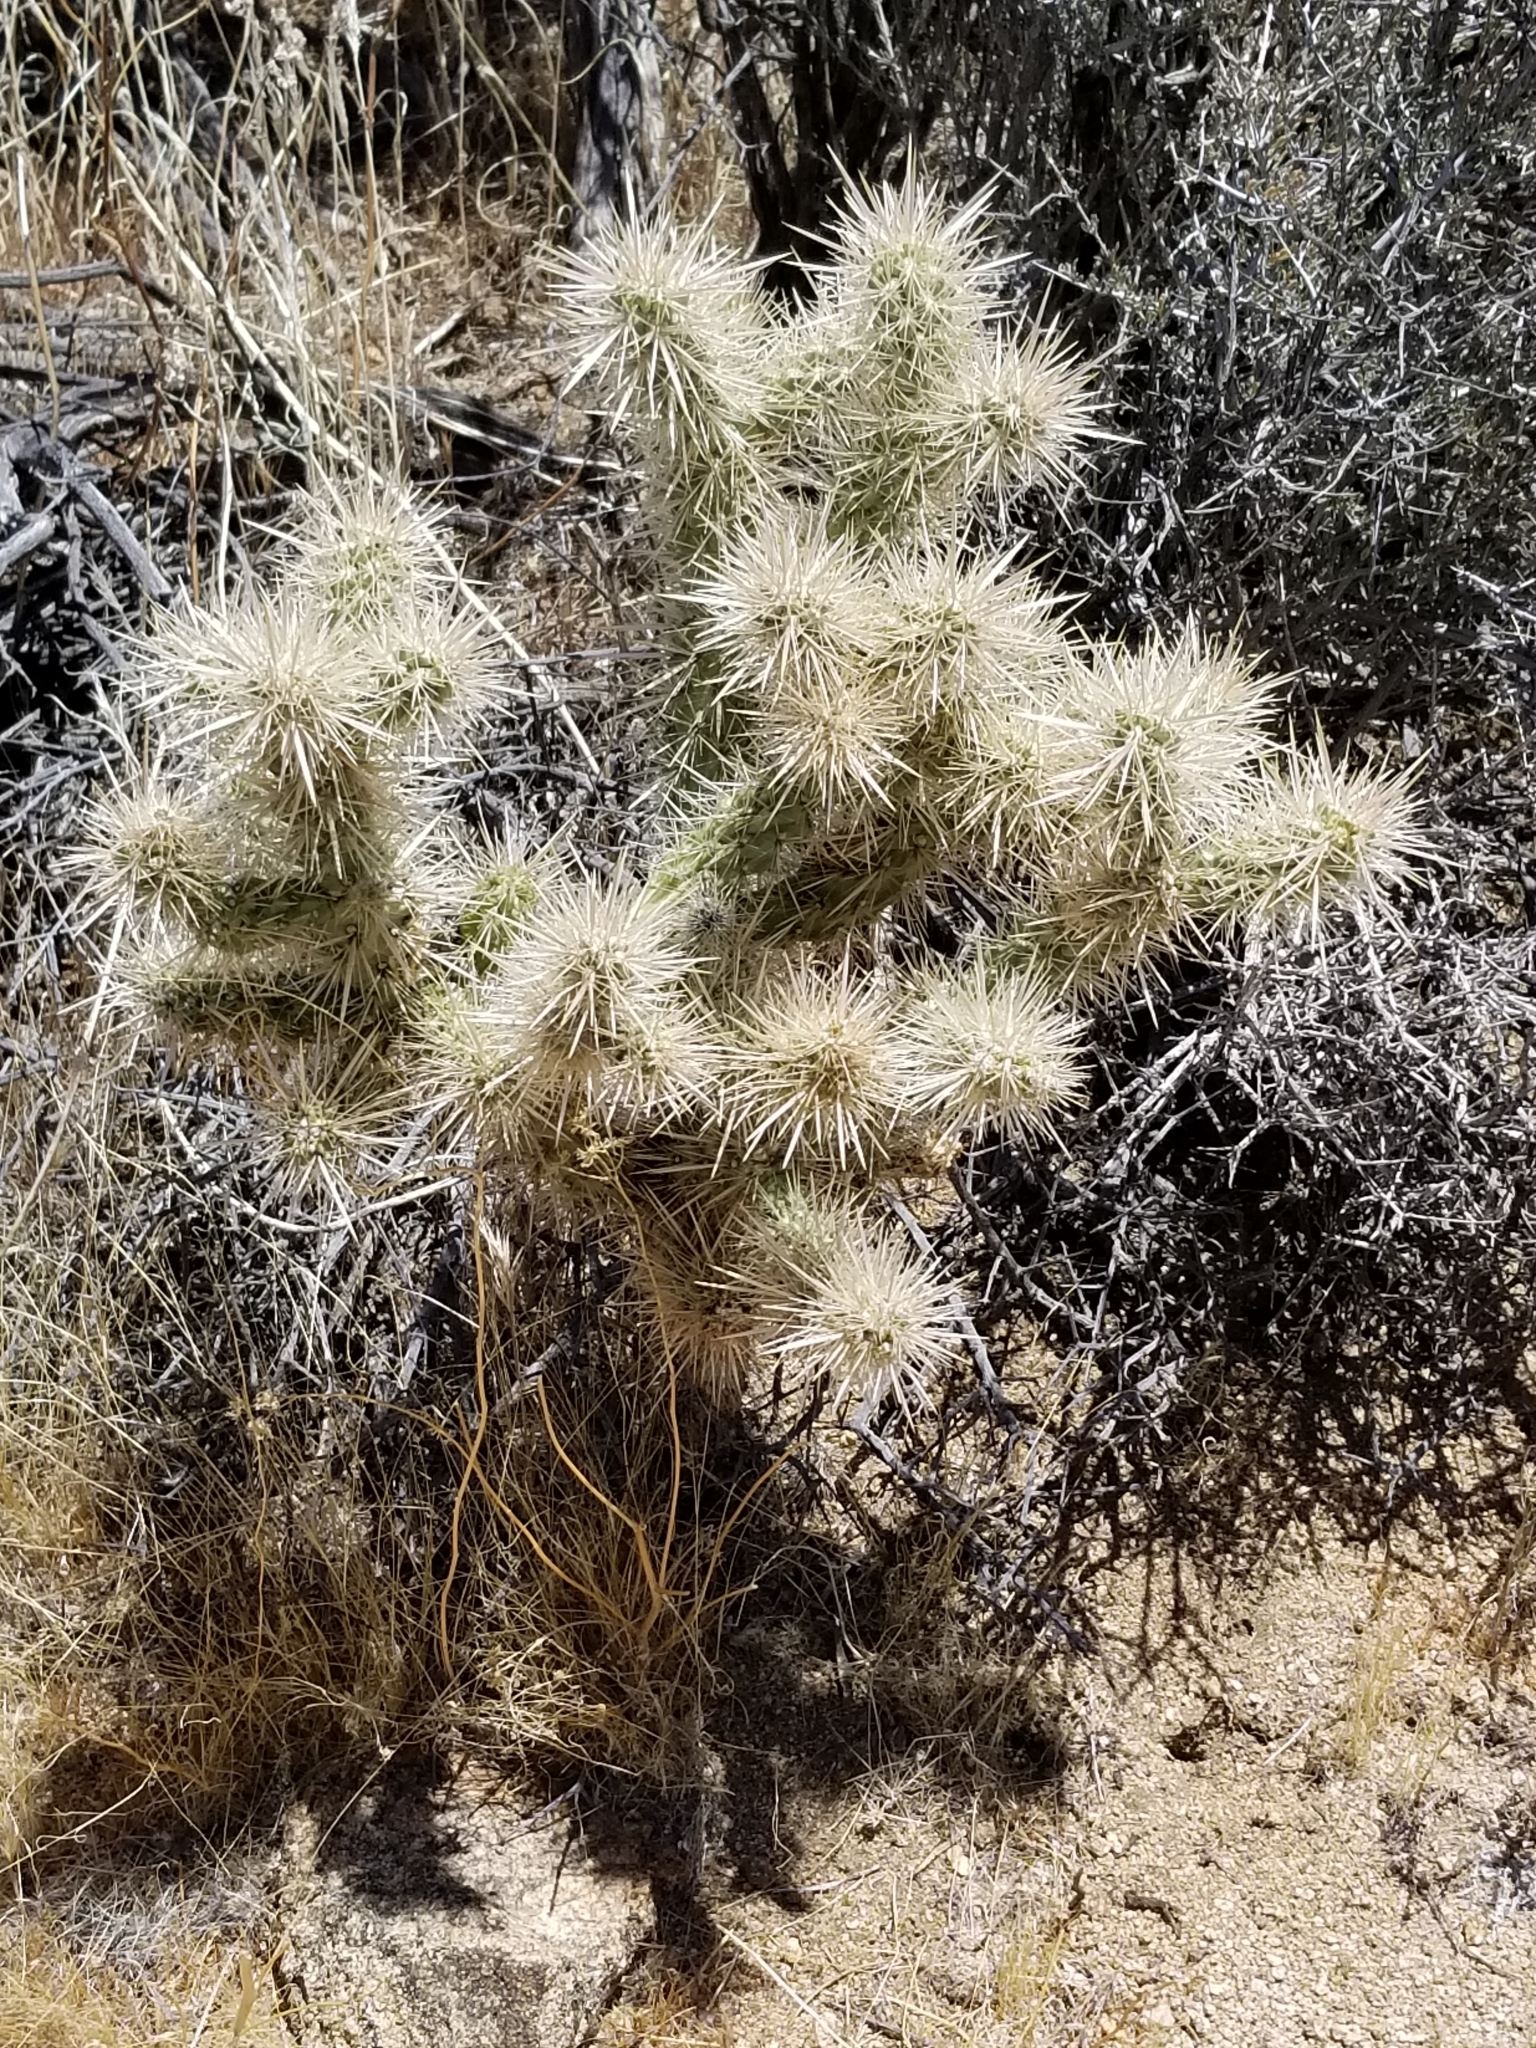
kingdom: Plantae
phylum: Tracheophyta
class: Magnoliopsida
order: Caryophyllales
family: Cactaceae
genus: Cylindropuntia
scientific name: Cylindropuntia echinocarpa
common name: Ground cholla
